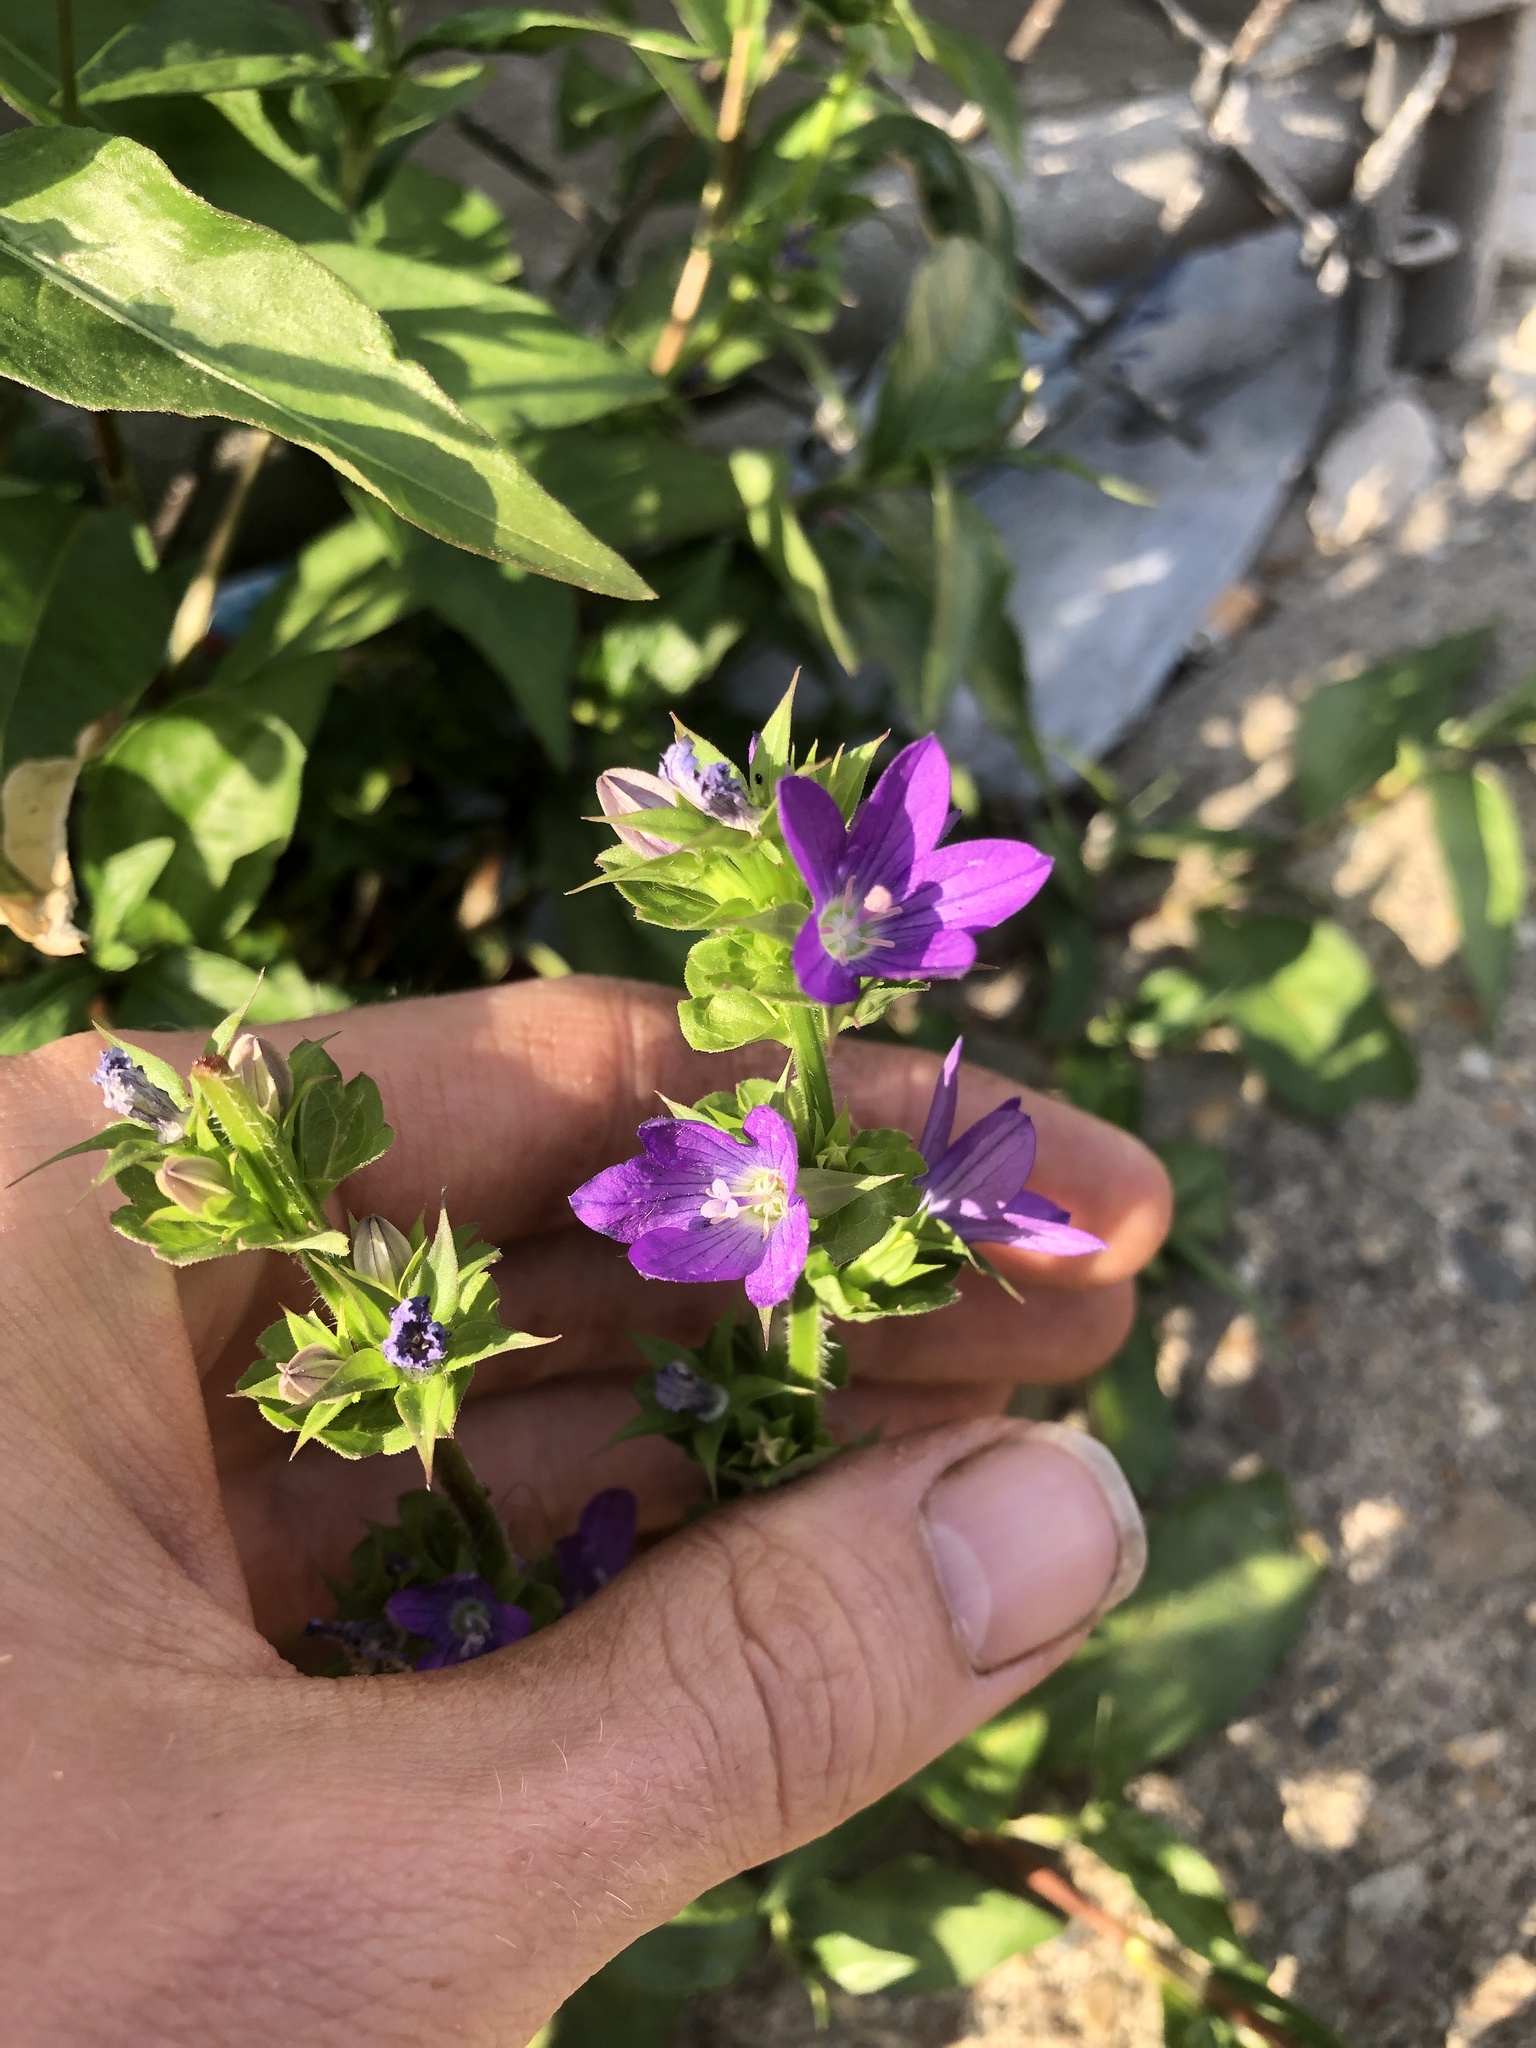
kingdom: Plantae
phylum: Tracheophyta
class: Magnoliopsida
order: Asterales
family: Campanulaceae
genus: Triodanis
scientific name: Triodanis perfoliata
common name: Clasping venus' looking-glass
